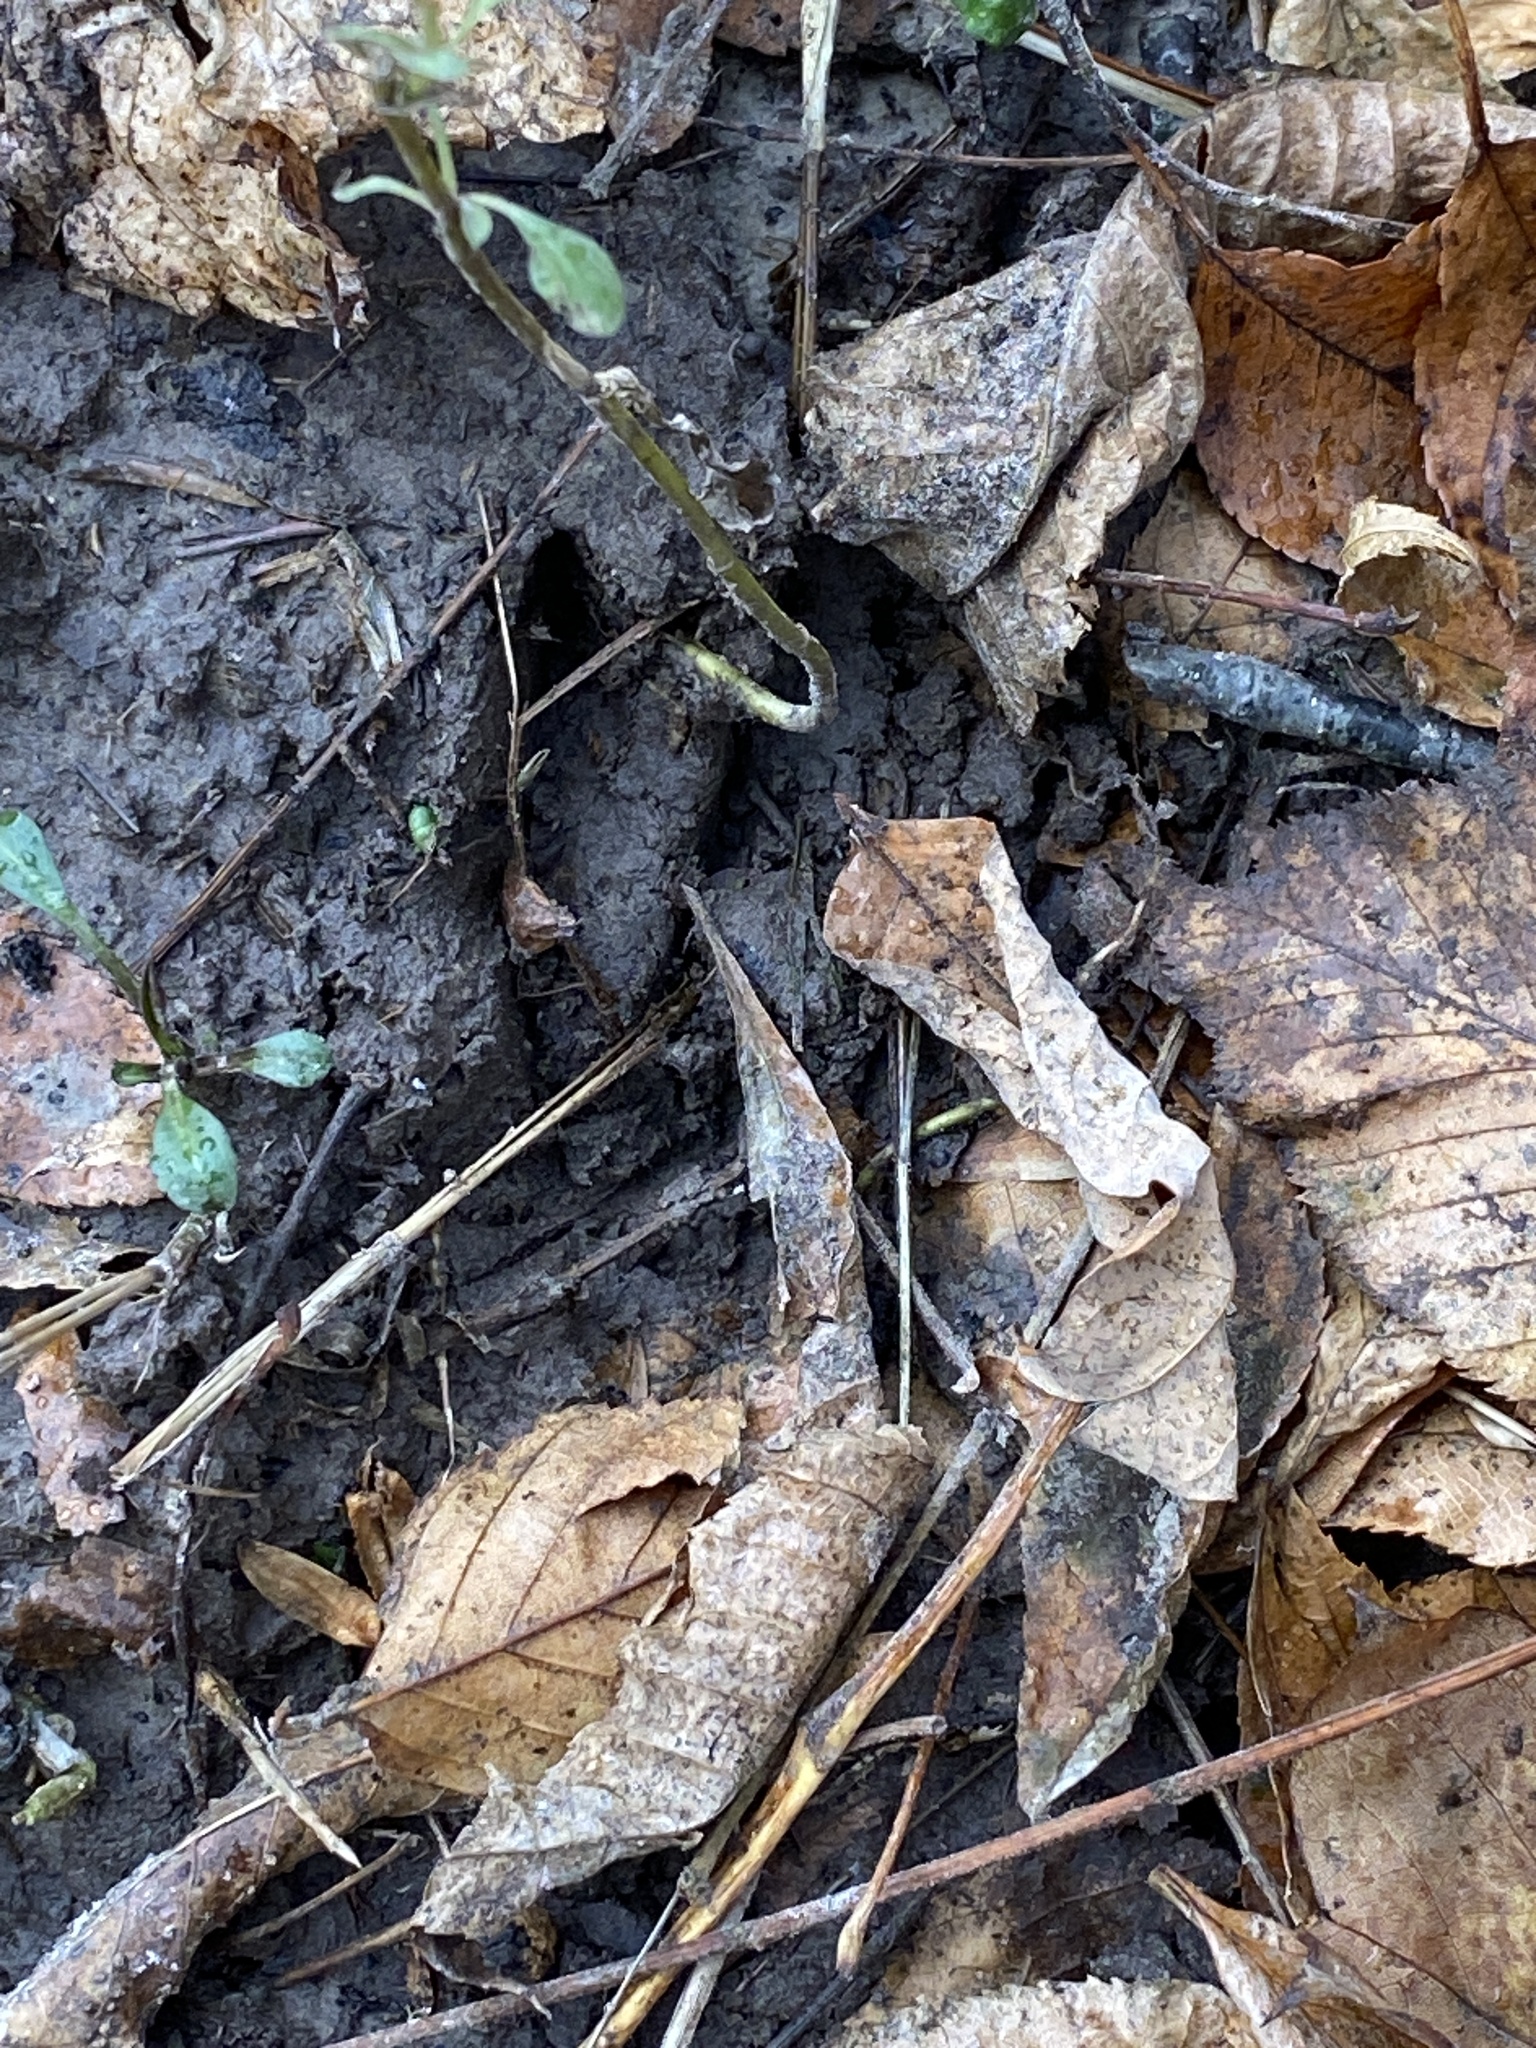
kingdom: Animalia
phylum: Chordata
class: Mammalia
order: Artiodactyla
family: Cervidae
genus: Odocoileus
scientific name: Odocoileus virginianus
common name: White-tailed deer
